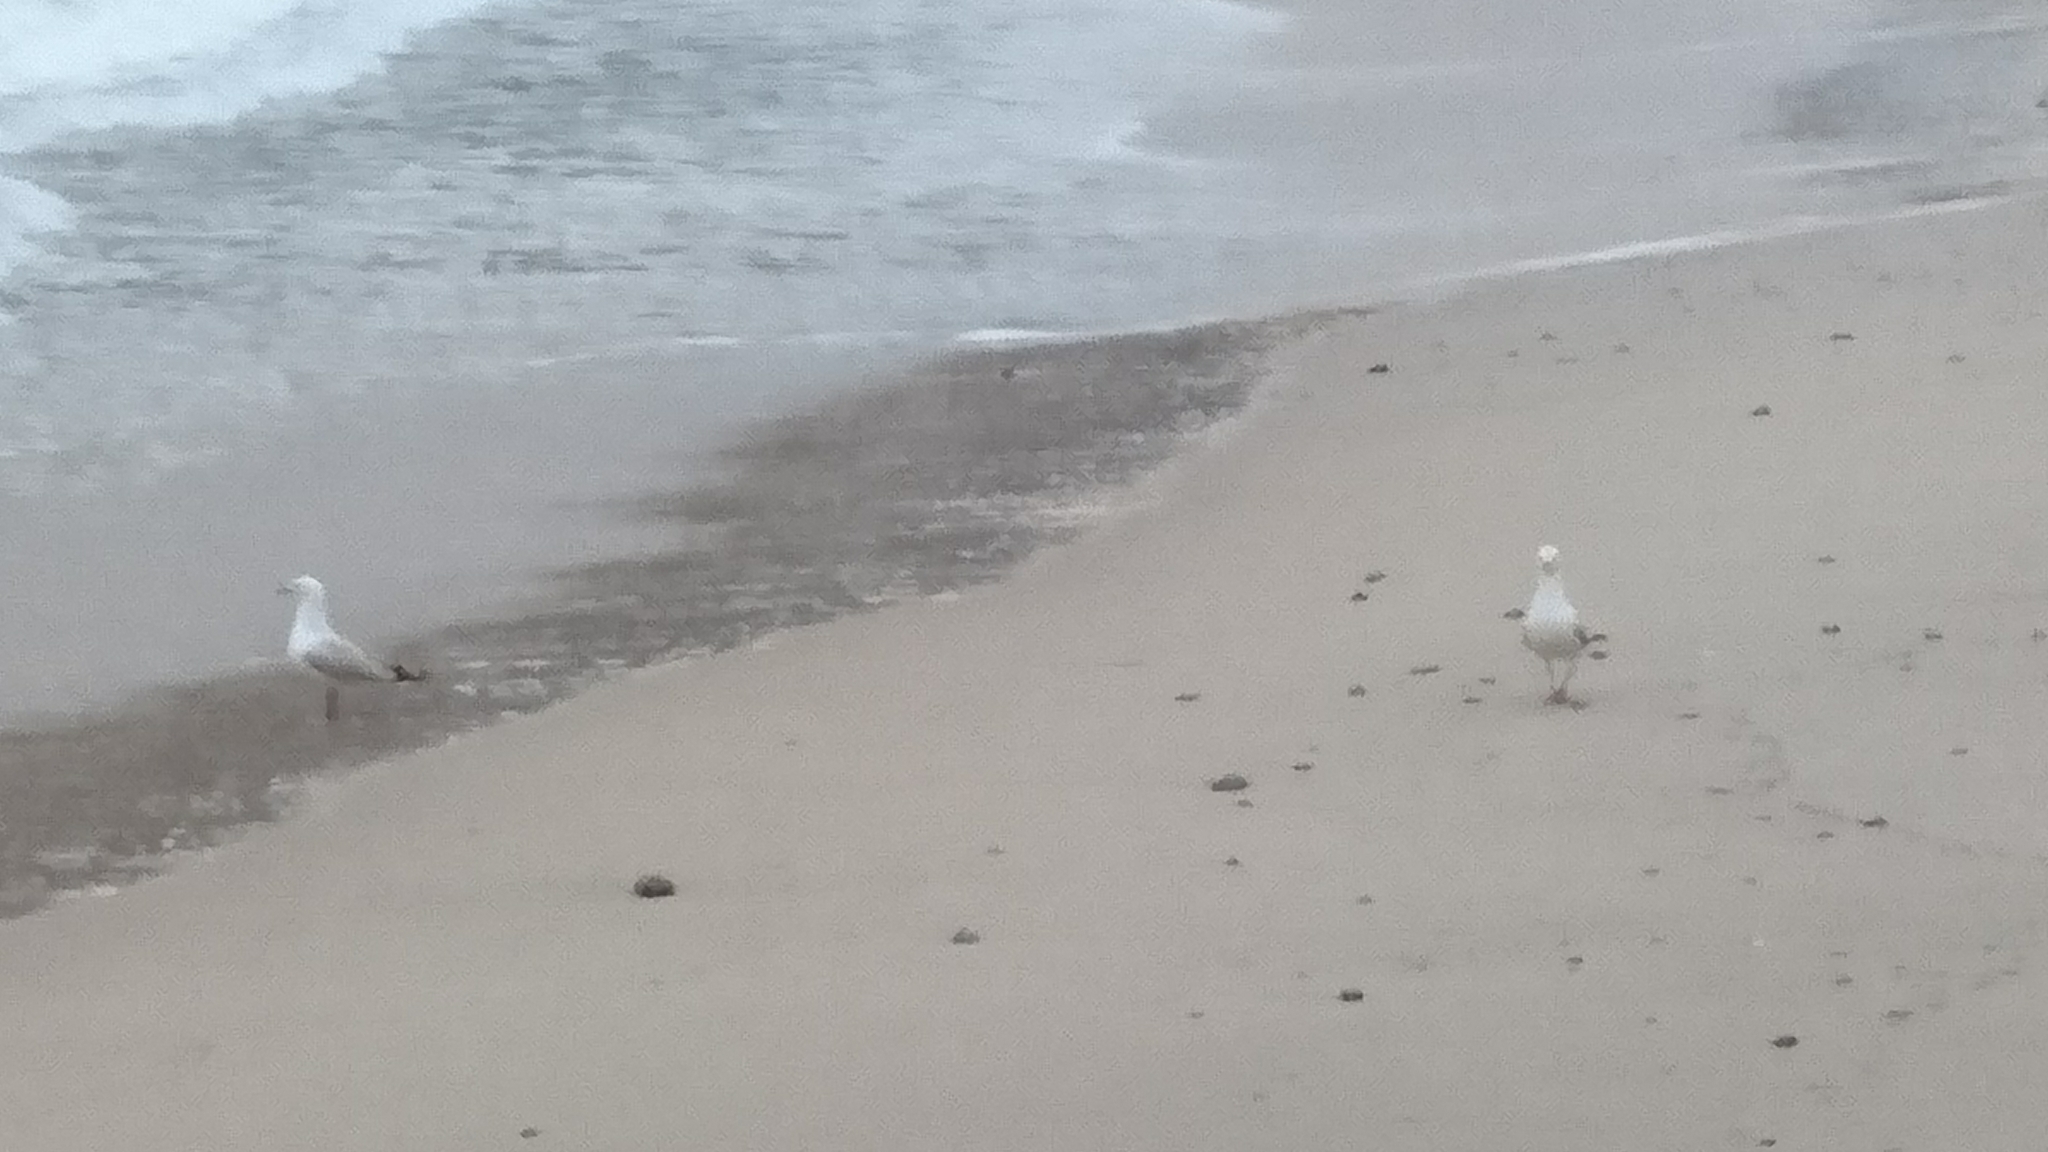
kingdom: Animalia
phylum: Chordata
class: Aves
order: Charadriiformes
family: Laridae
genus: Chroicocephalus
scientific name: Chroicocephalus novaehollandiae
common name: Silver gull
